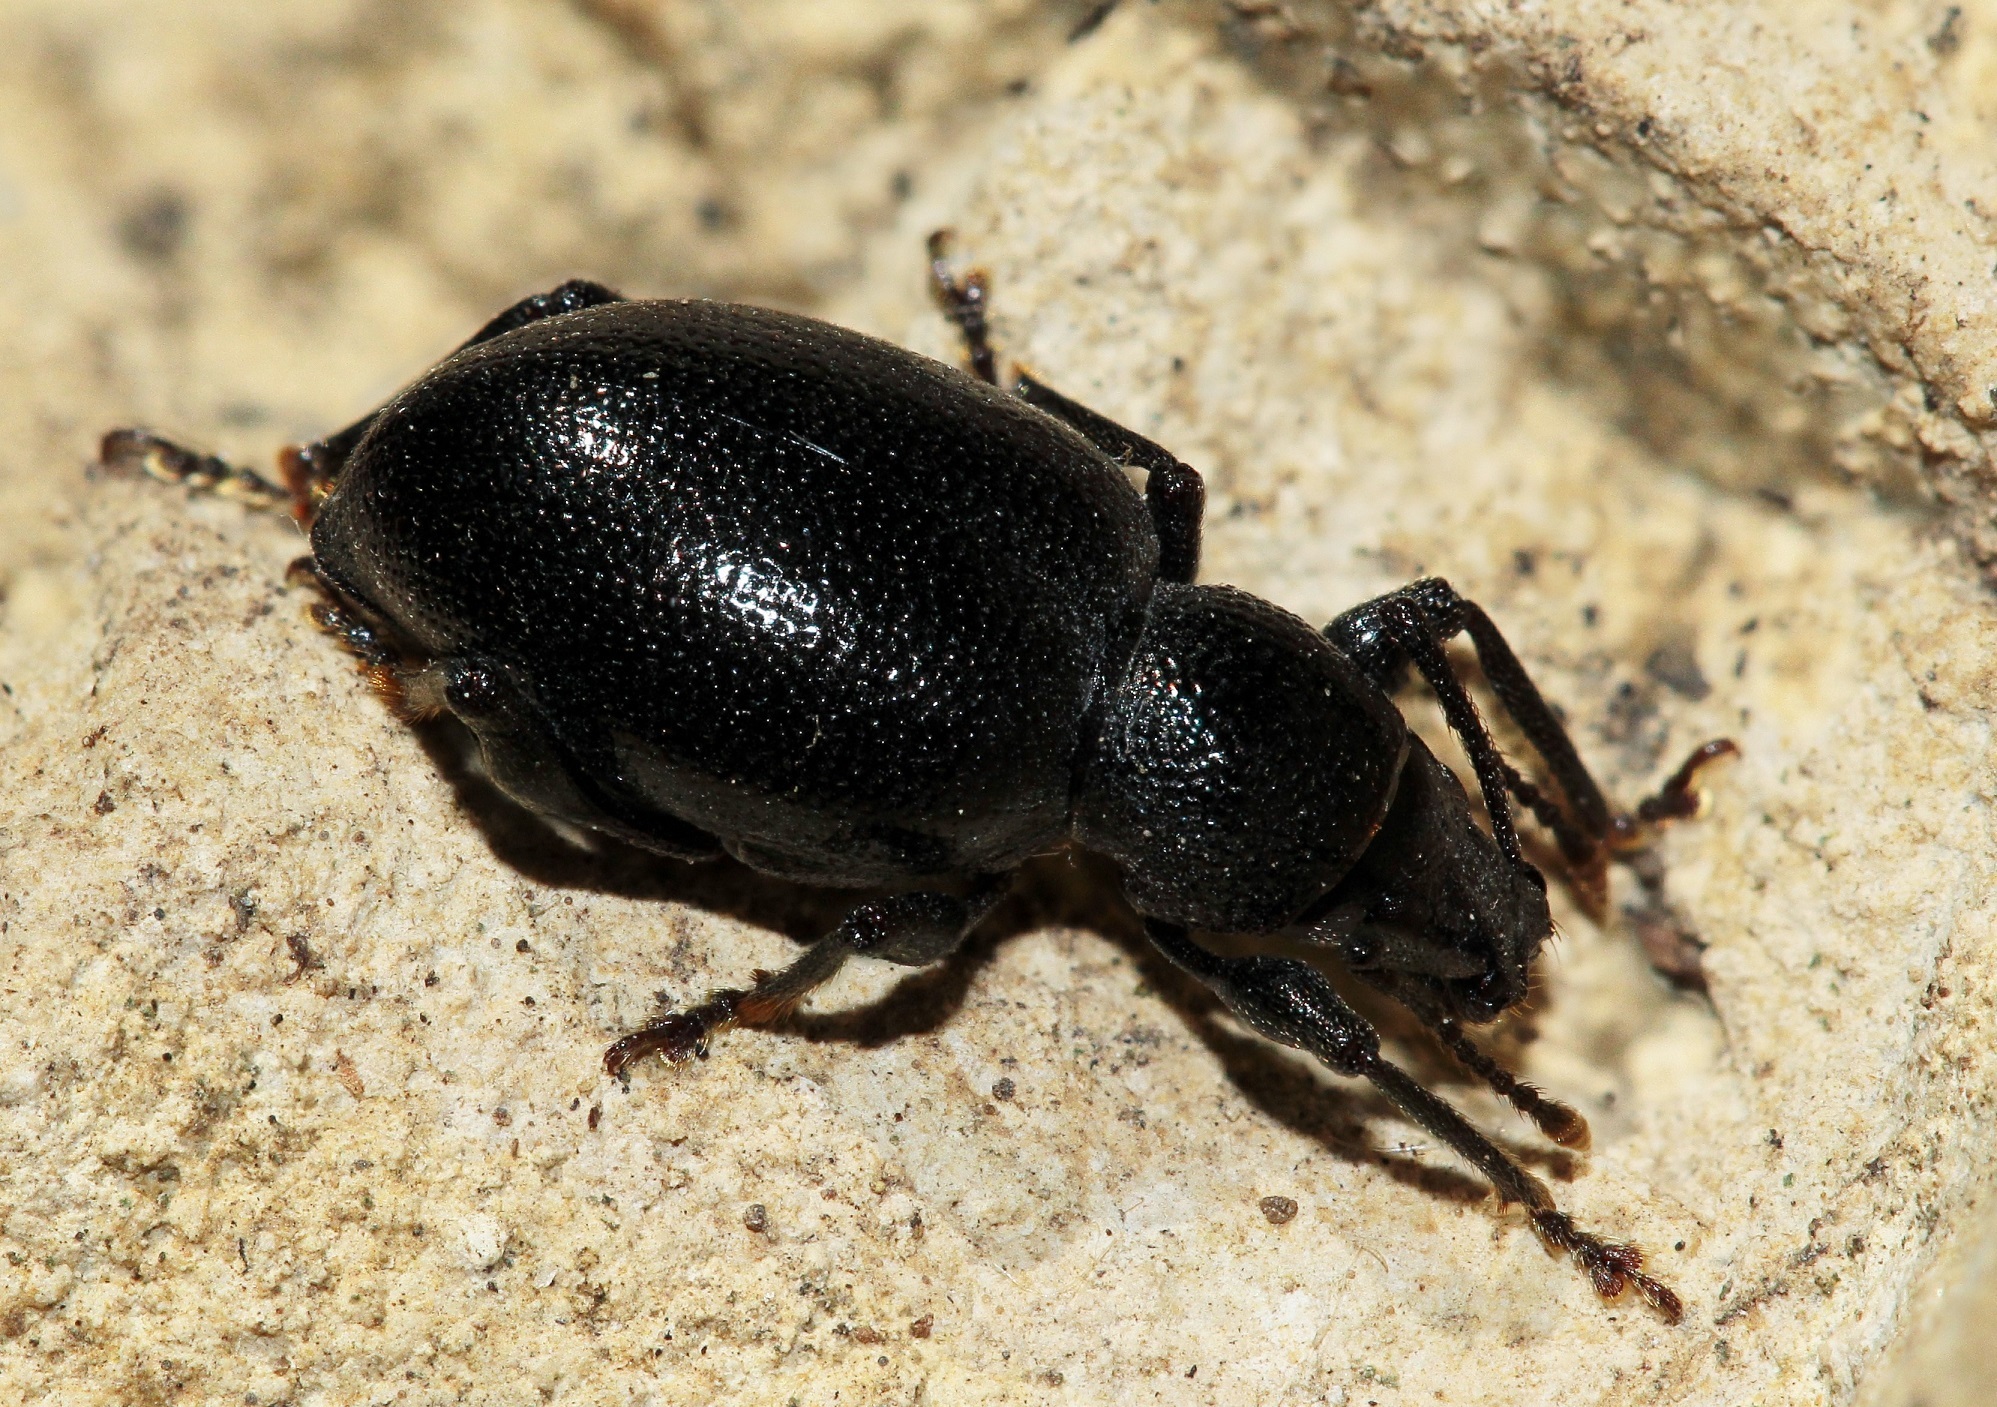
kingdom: Animalia
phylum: Arthropoda
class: Insecta
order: Coleoptera
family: Curculionidae
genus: Otiorhynchus
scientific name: Otiorhynchus atronitens
